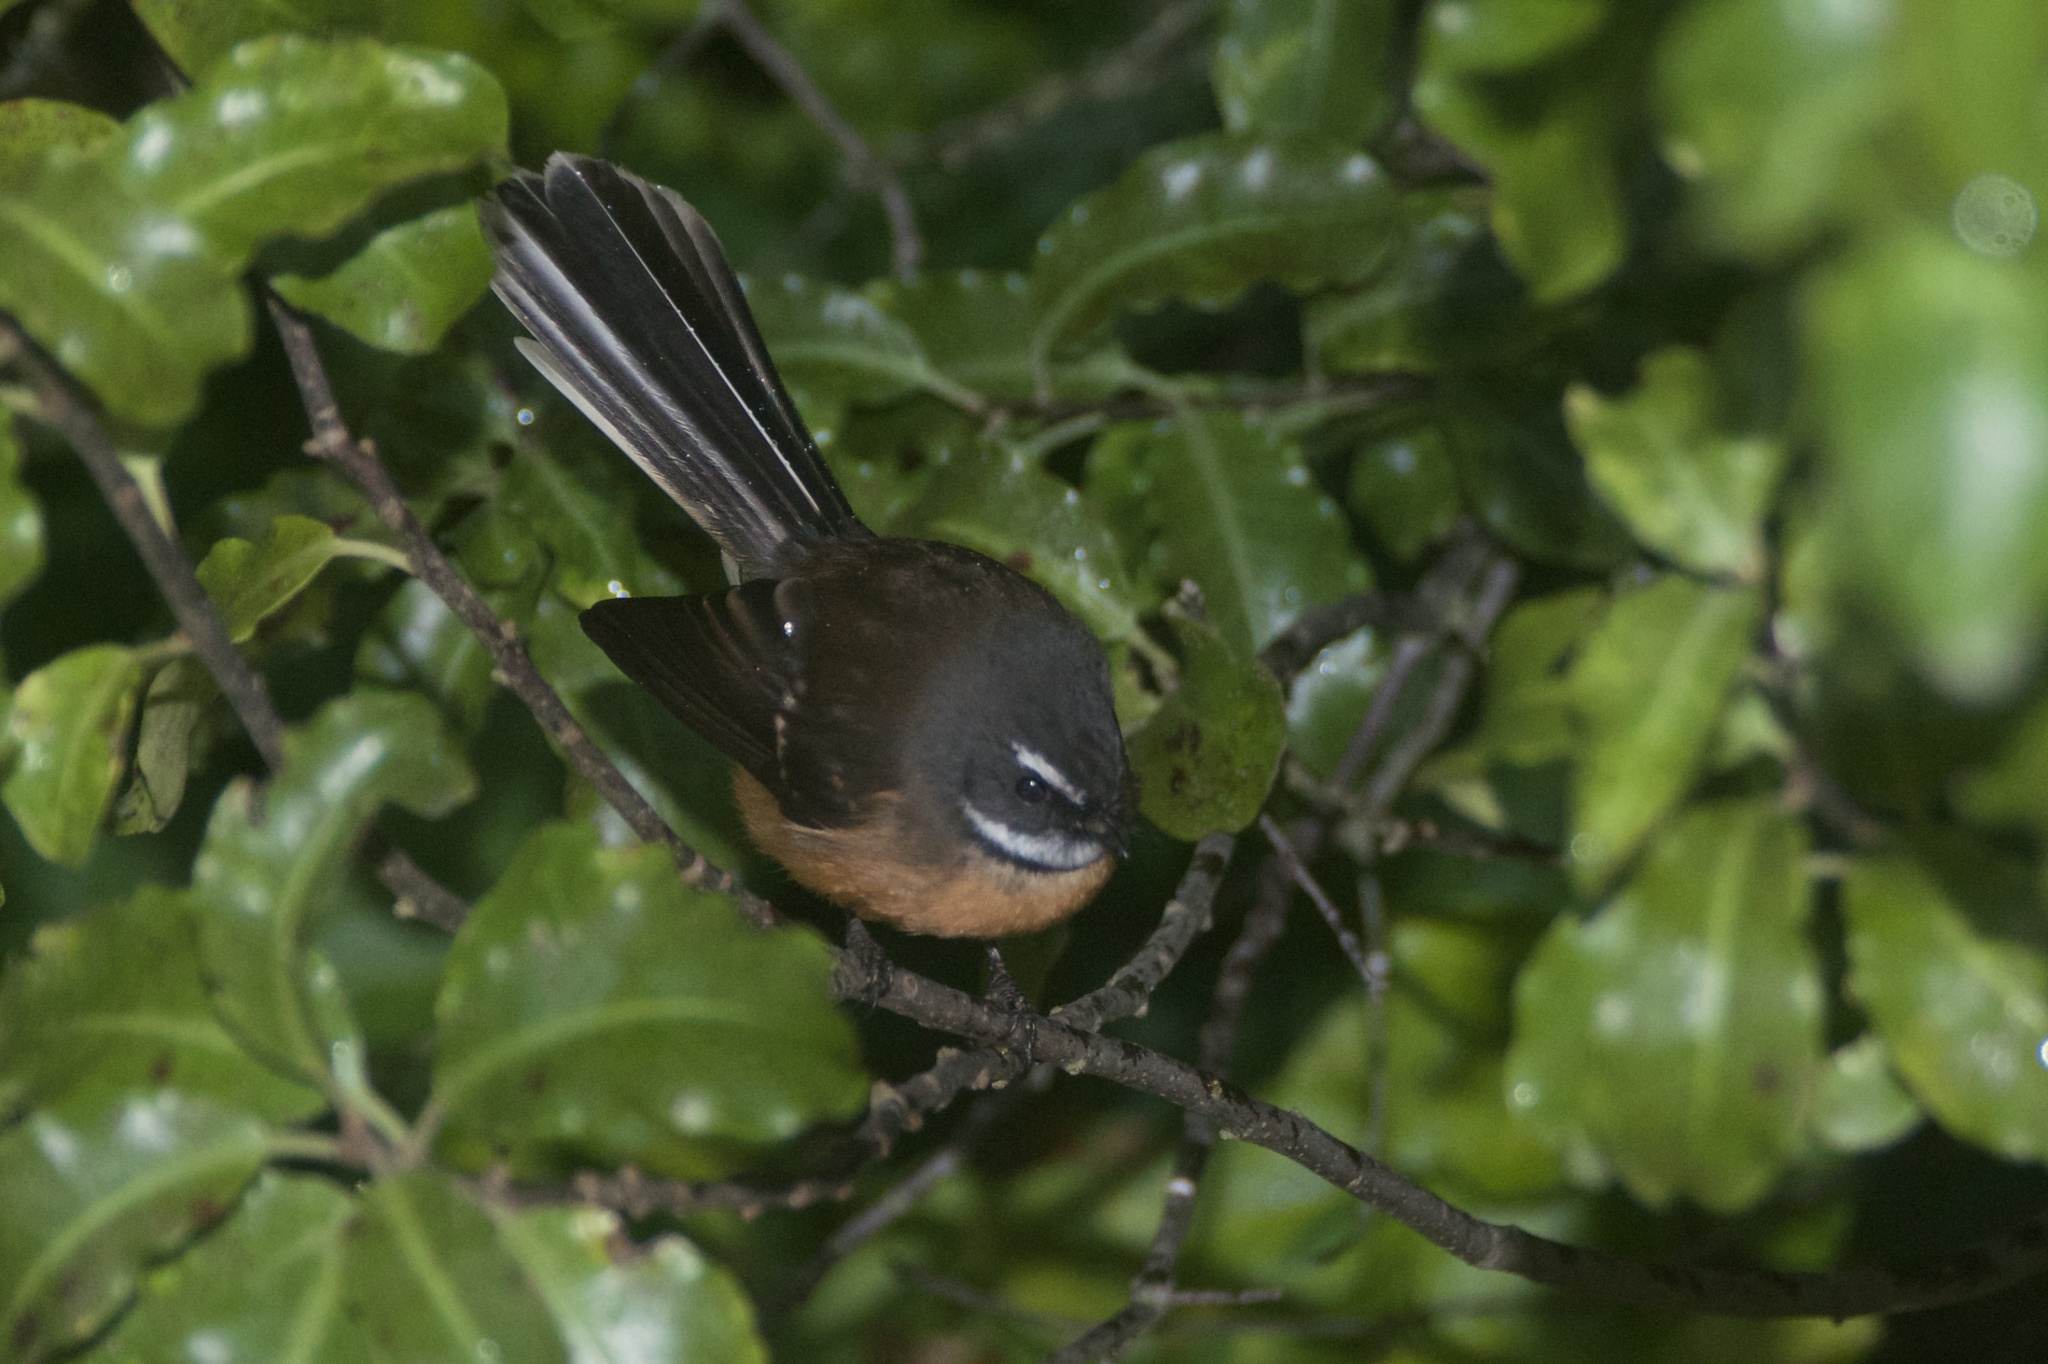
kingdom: Animalia
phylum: Chordata
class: Aves
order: Passeriformes
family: Rhipiduridae
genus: Rhipidura
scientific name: Rhipidura fuliginosa
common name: New zealand fantail
